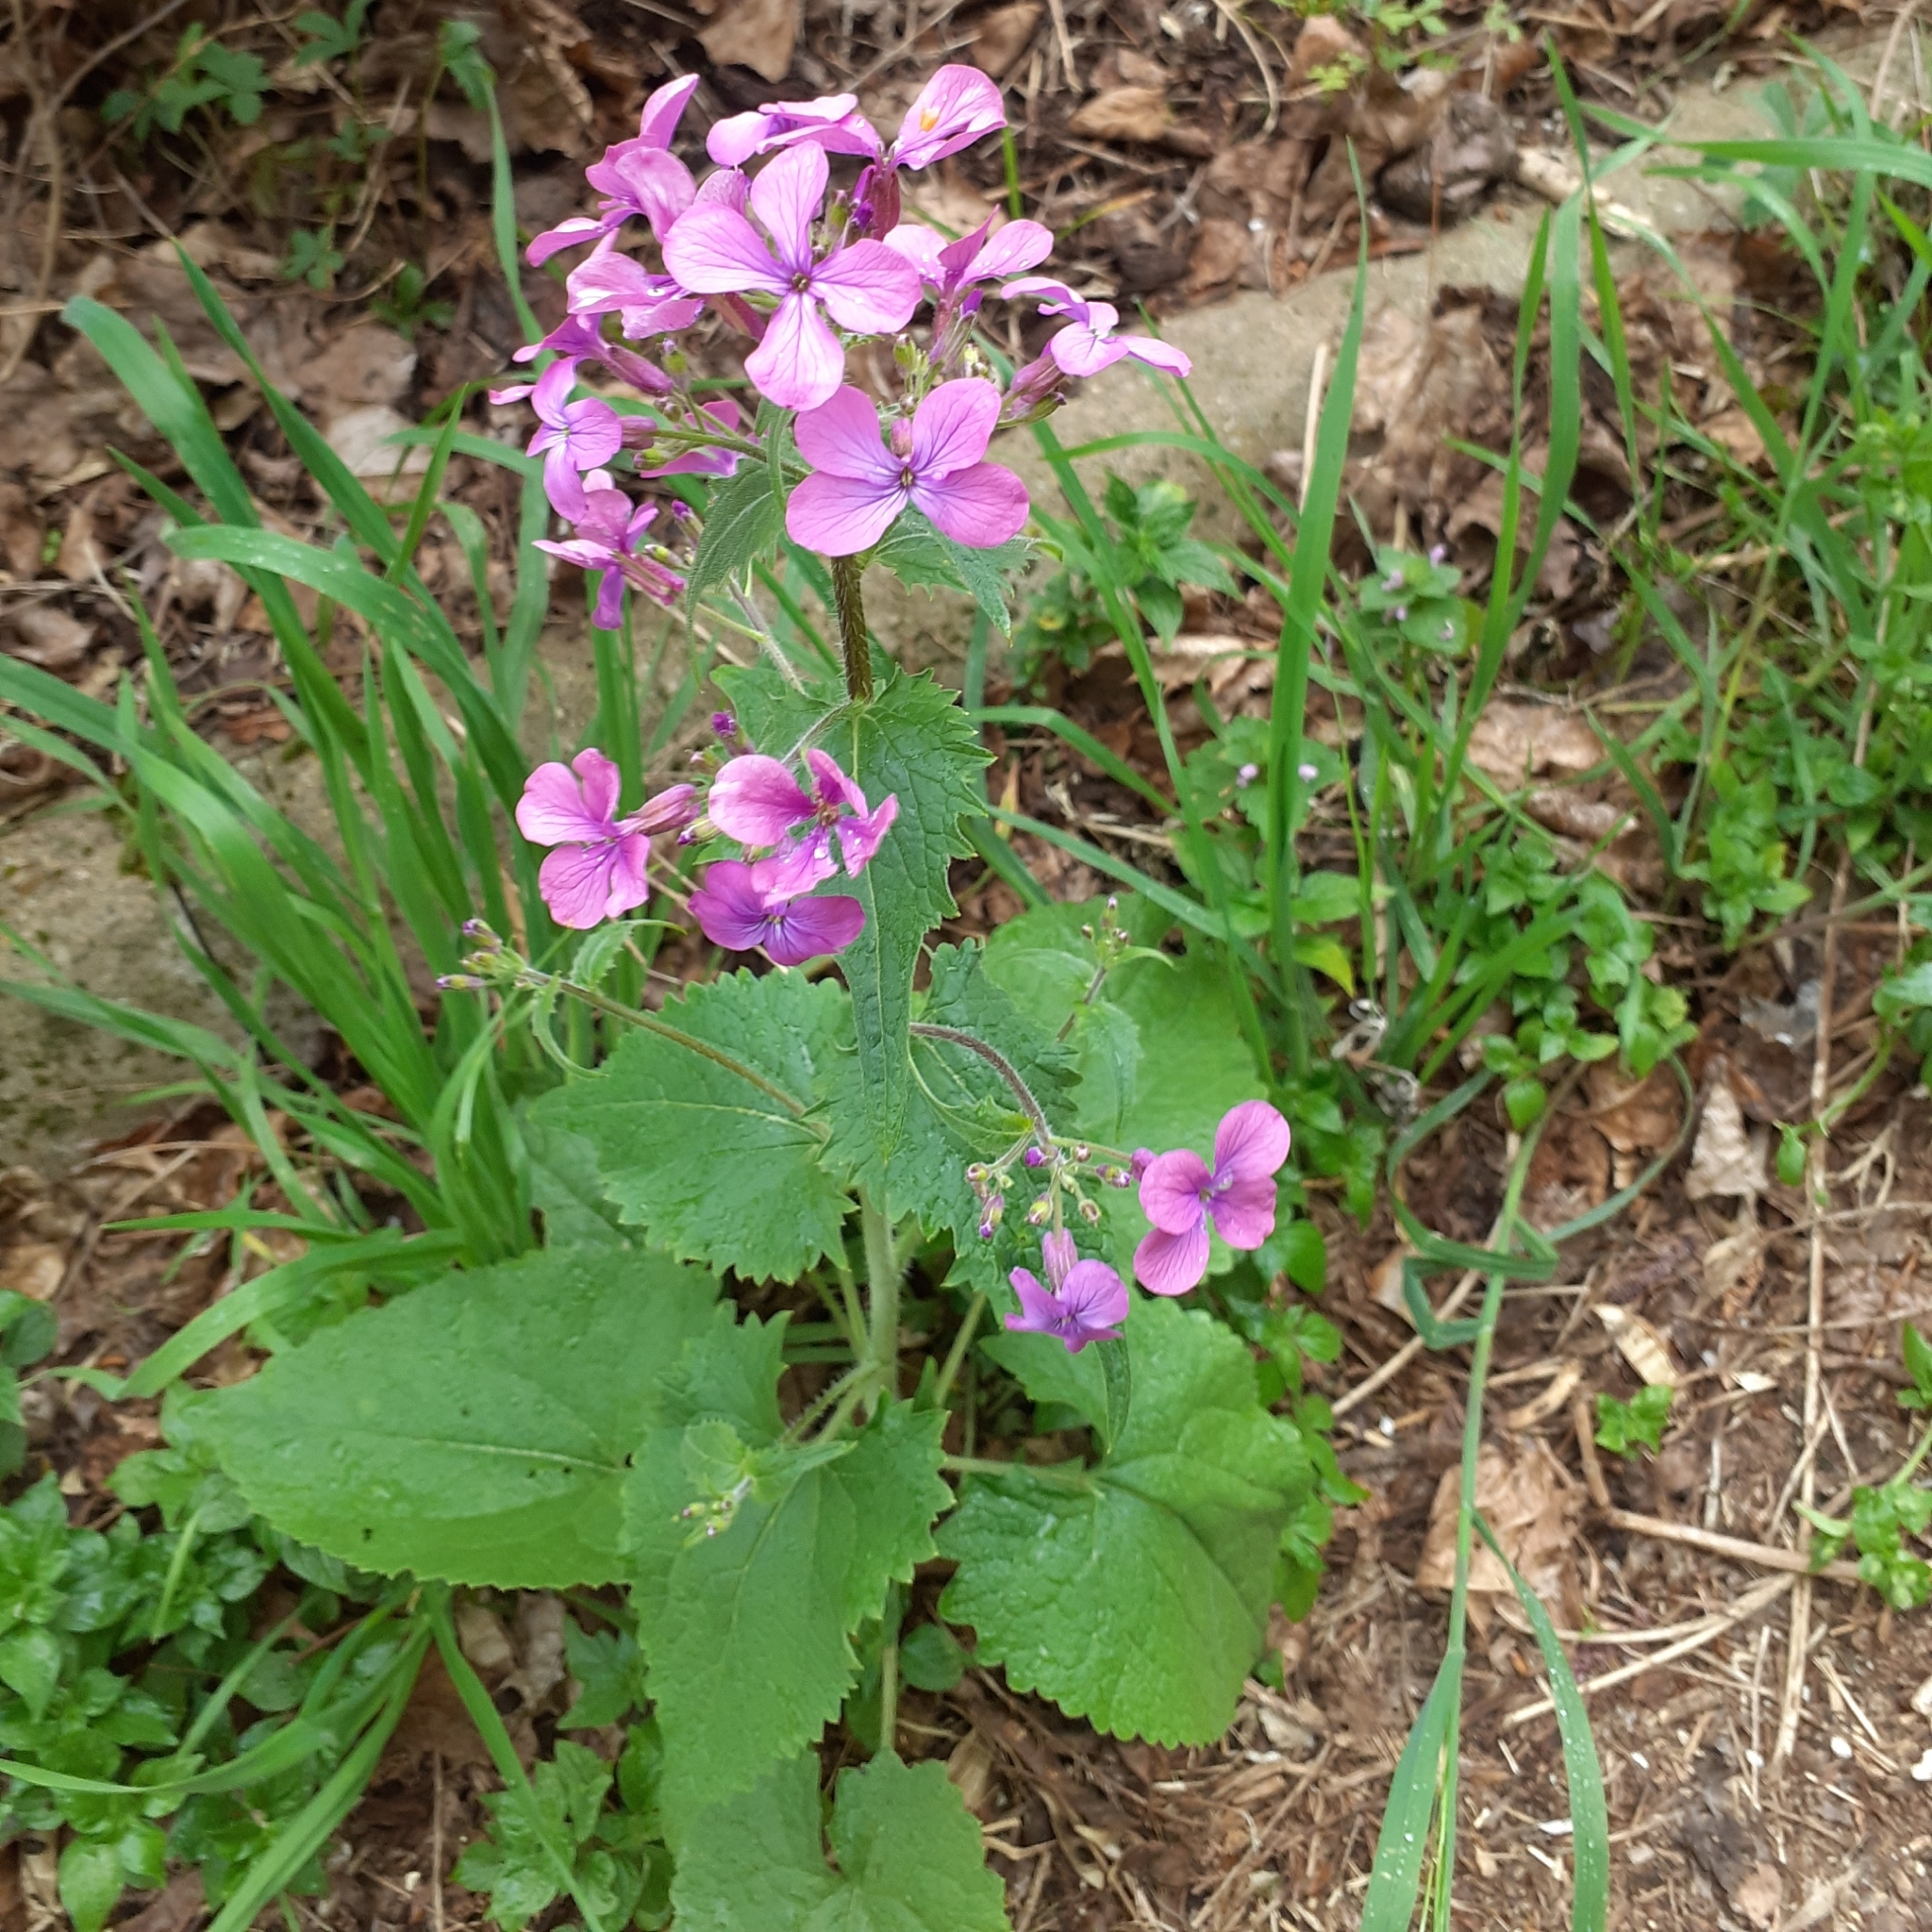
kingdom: Plantae
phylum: Tracheophyta
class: Magnoliopsida
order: Brassicales
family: Brassicaceae
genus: Lunaria
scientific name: Lunaria annua
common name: Honesty
